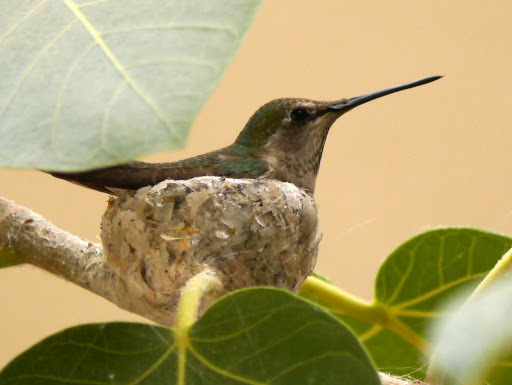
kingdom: Animalia
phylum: Chordata
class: Aves
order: Apodiformes
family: Trochilidae
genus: Calypte
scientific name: Calypte anna
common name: Anna's hummingbird
